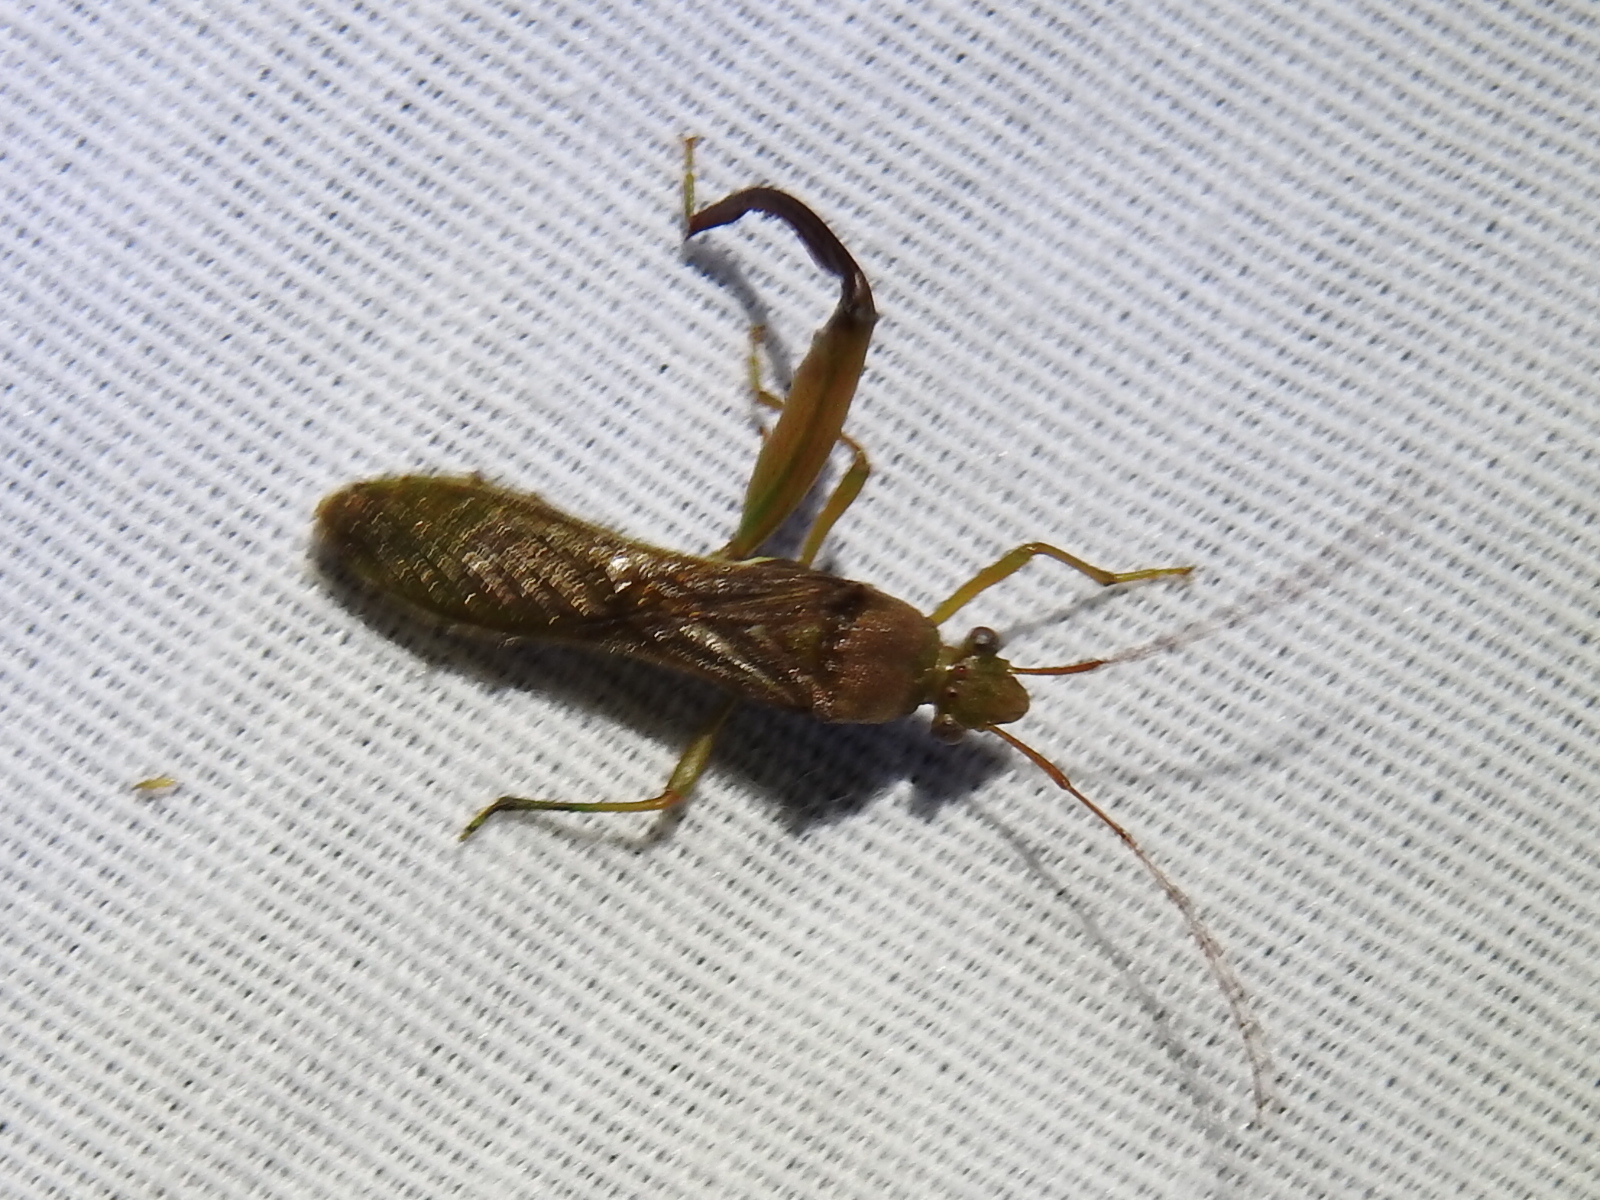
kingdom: Animalia
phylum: Arthropoda
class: Insecta
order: Hemiptera
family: Alydidae
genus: Hyalymenus
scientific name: Hyalymenus tarsatus
